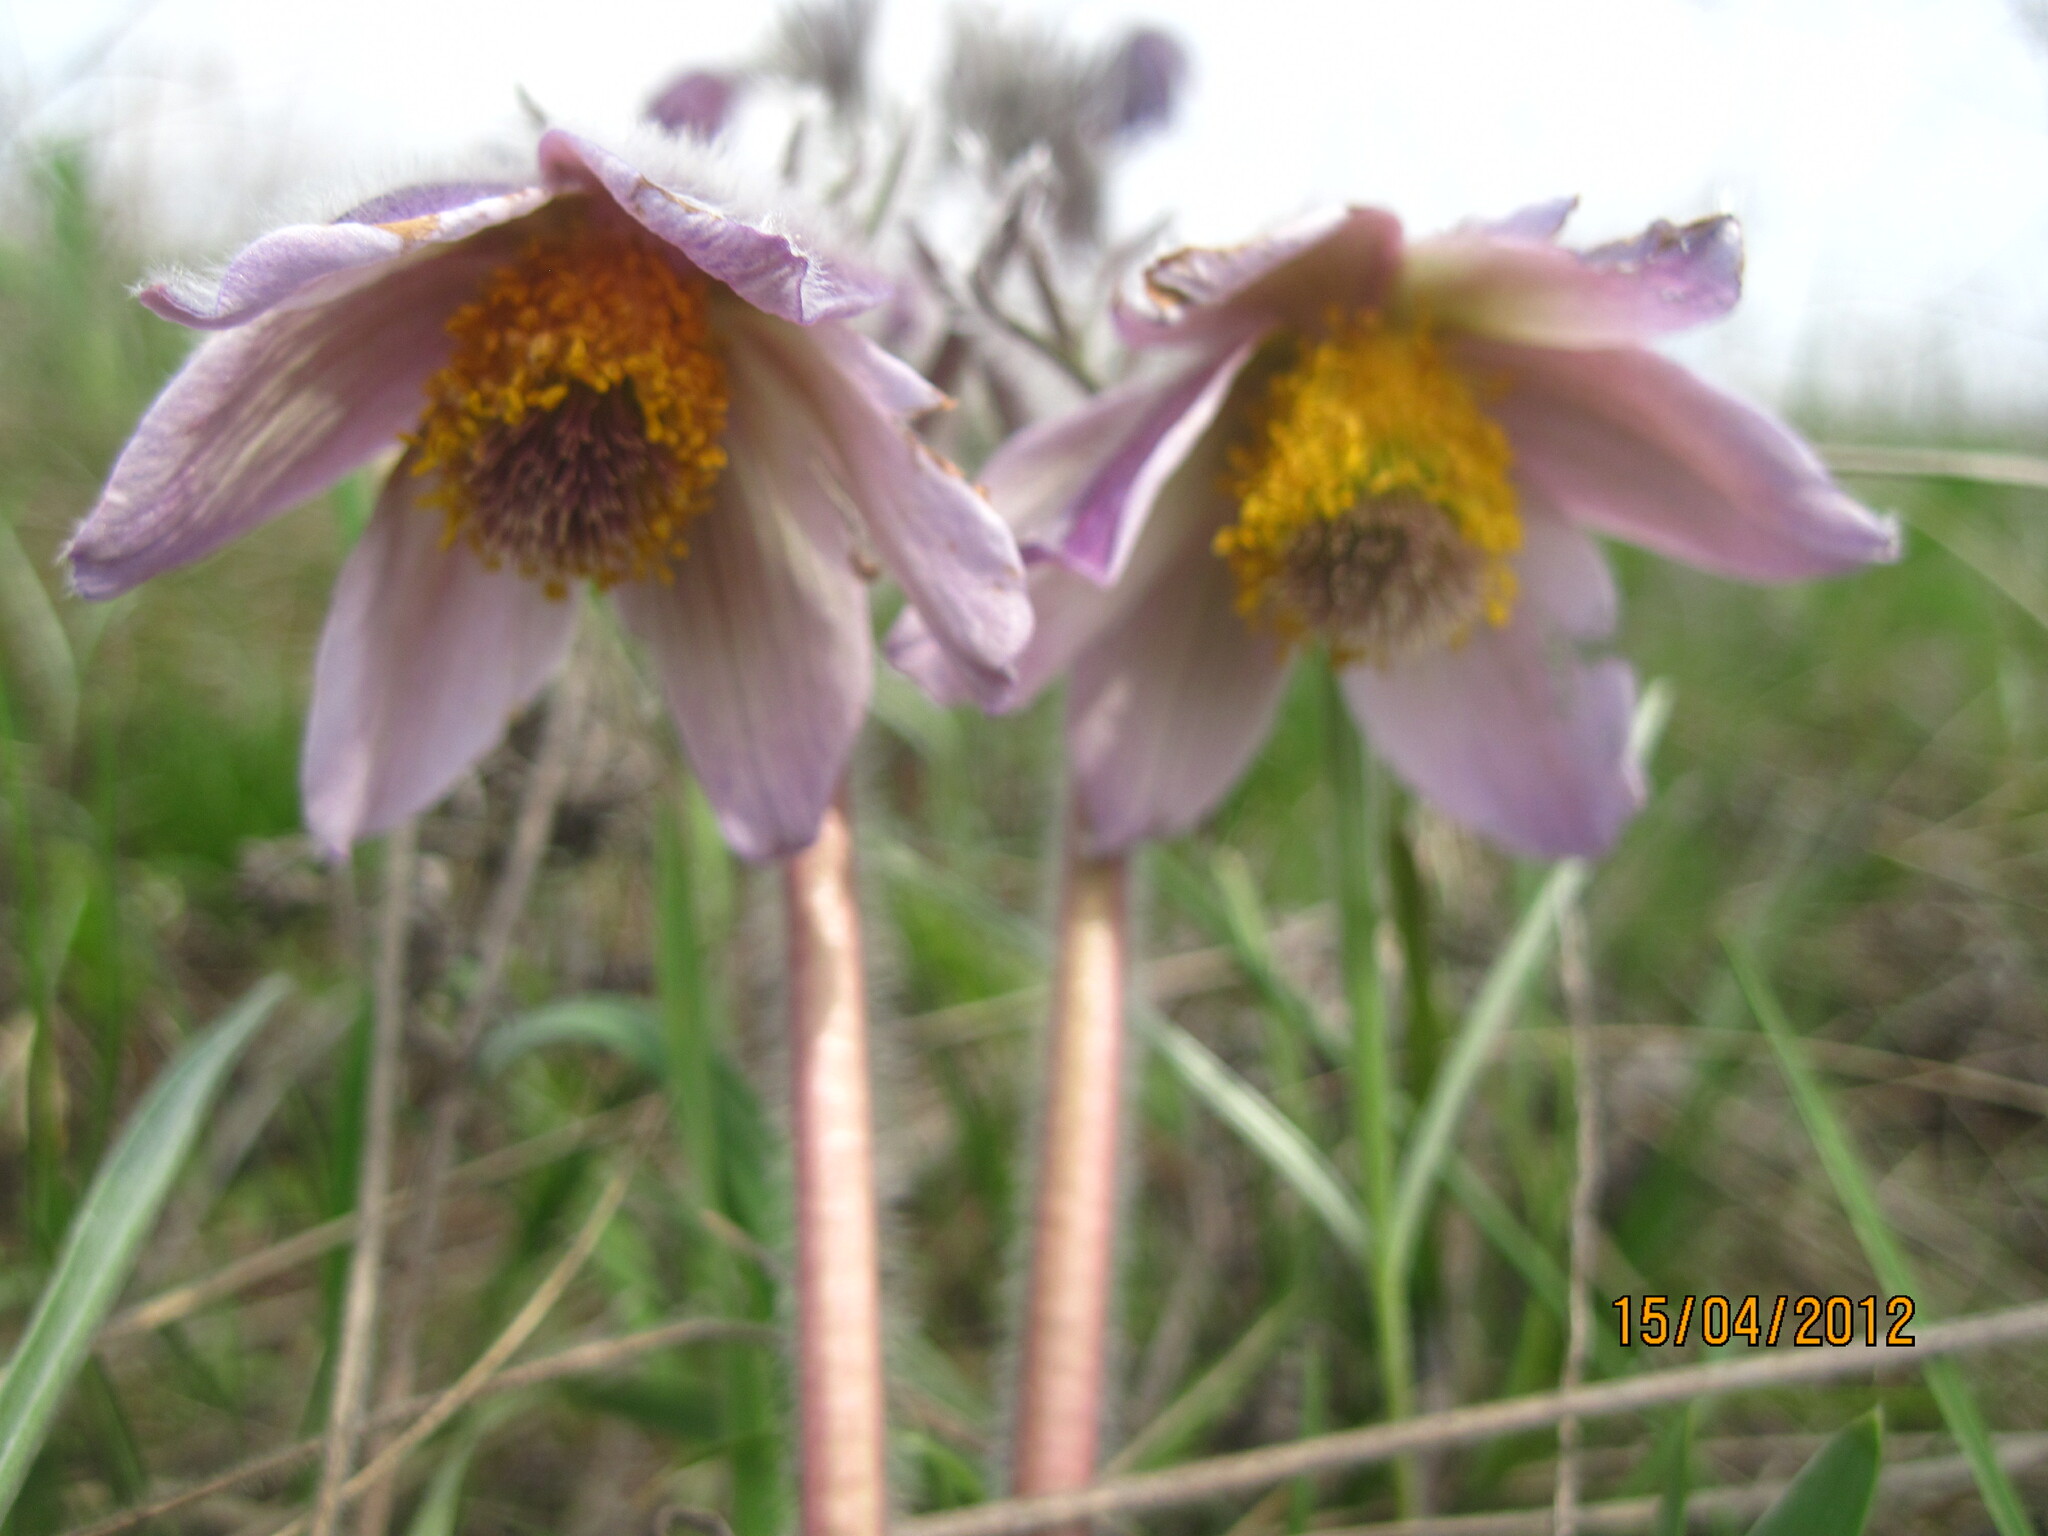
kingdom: Plantae
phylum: Tracheophyta
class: Magnoliopsida
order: Ranunculales
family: Ranunculaceae
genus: Pulsatilla
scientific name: Pulsatilla pratensis
